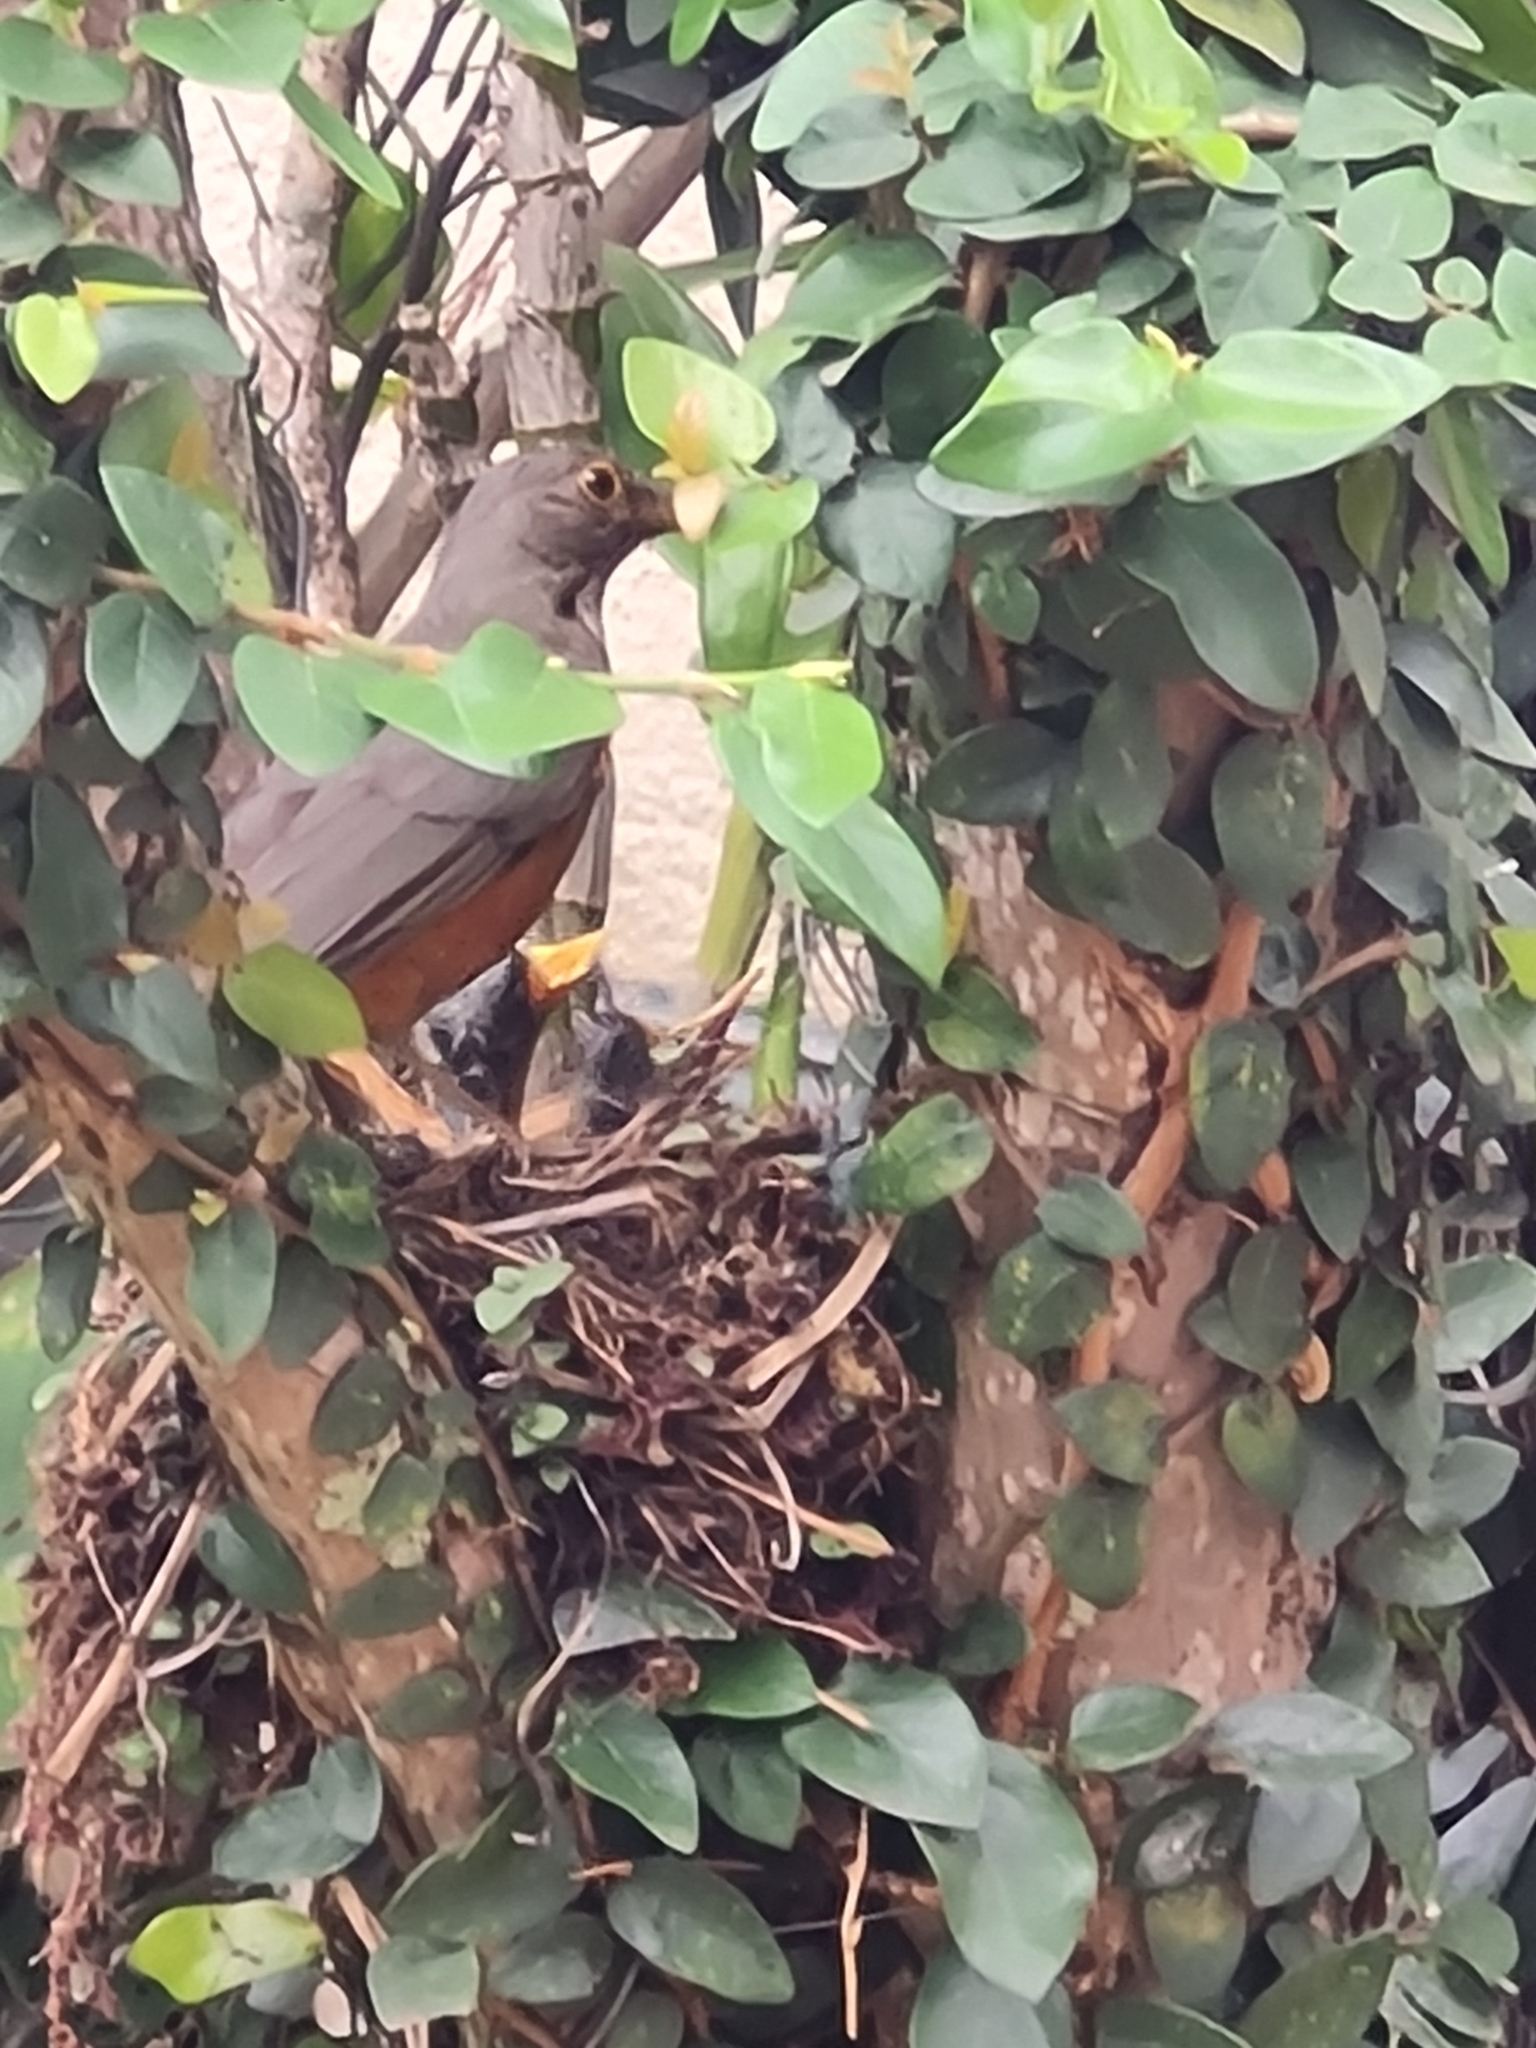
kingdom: Animalia
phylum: Chordata
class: Aves
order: Passeriformes
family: Turdidae
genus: Turdus
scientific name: Turdus rufiventris
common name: Rufous-bellied thrush
